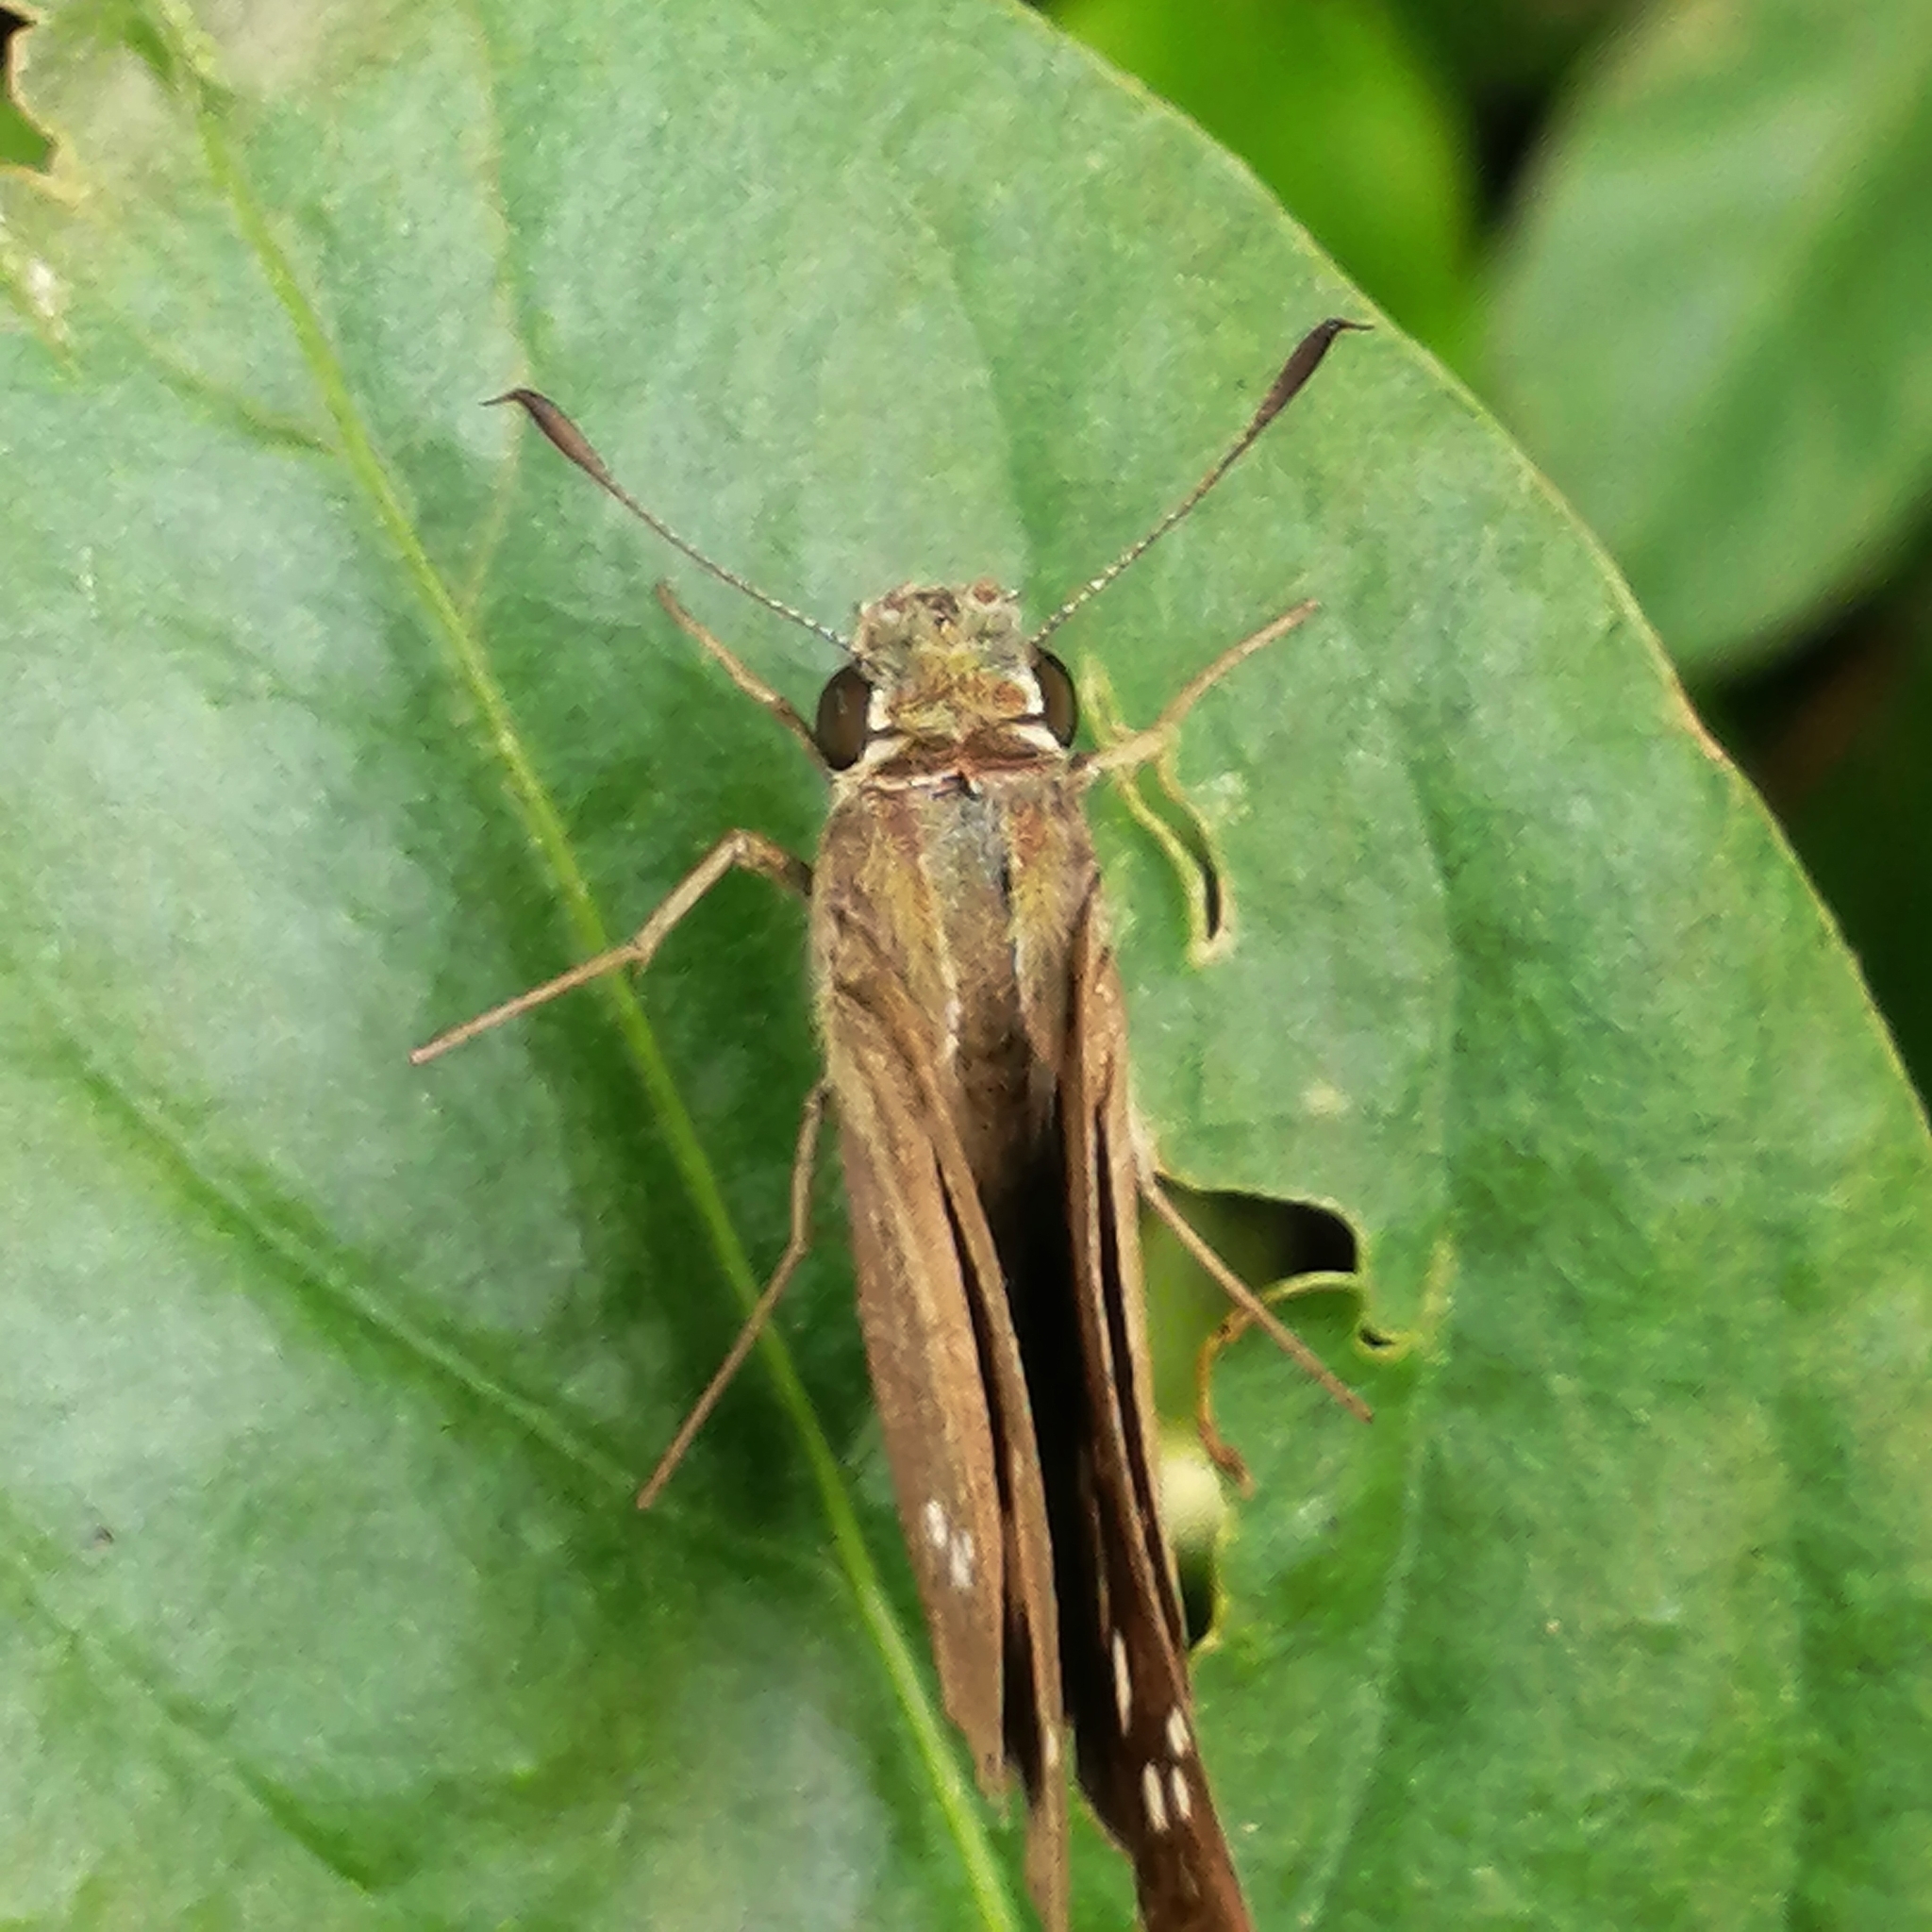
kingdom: Animalia
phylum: Arthropoda
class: Insecta
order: Lepidoptera
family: Hesperiidae
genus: Borbo
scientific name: Borbo cinnara
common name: Formosan swift
